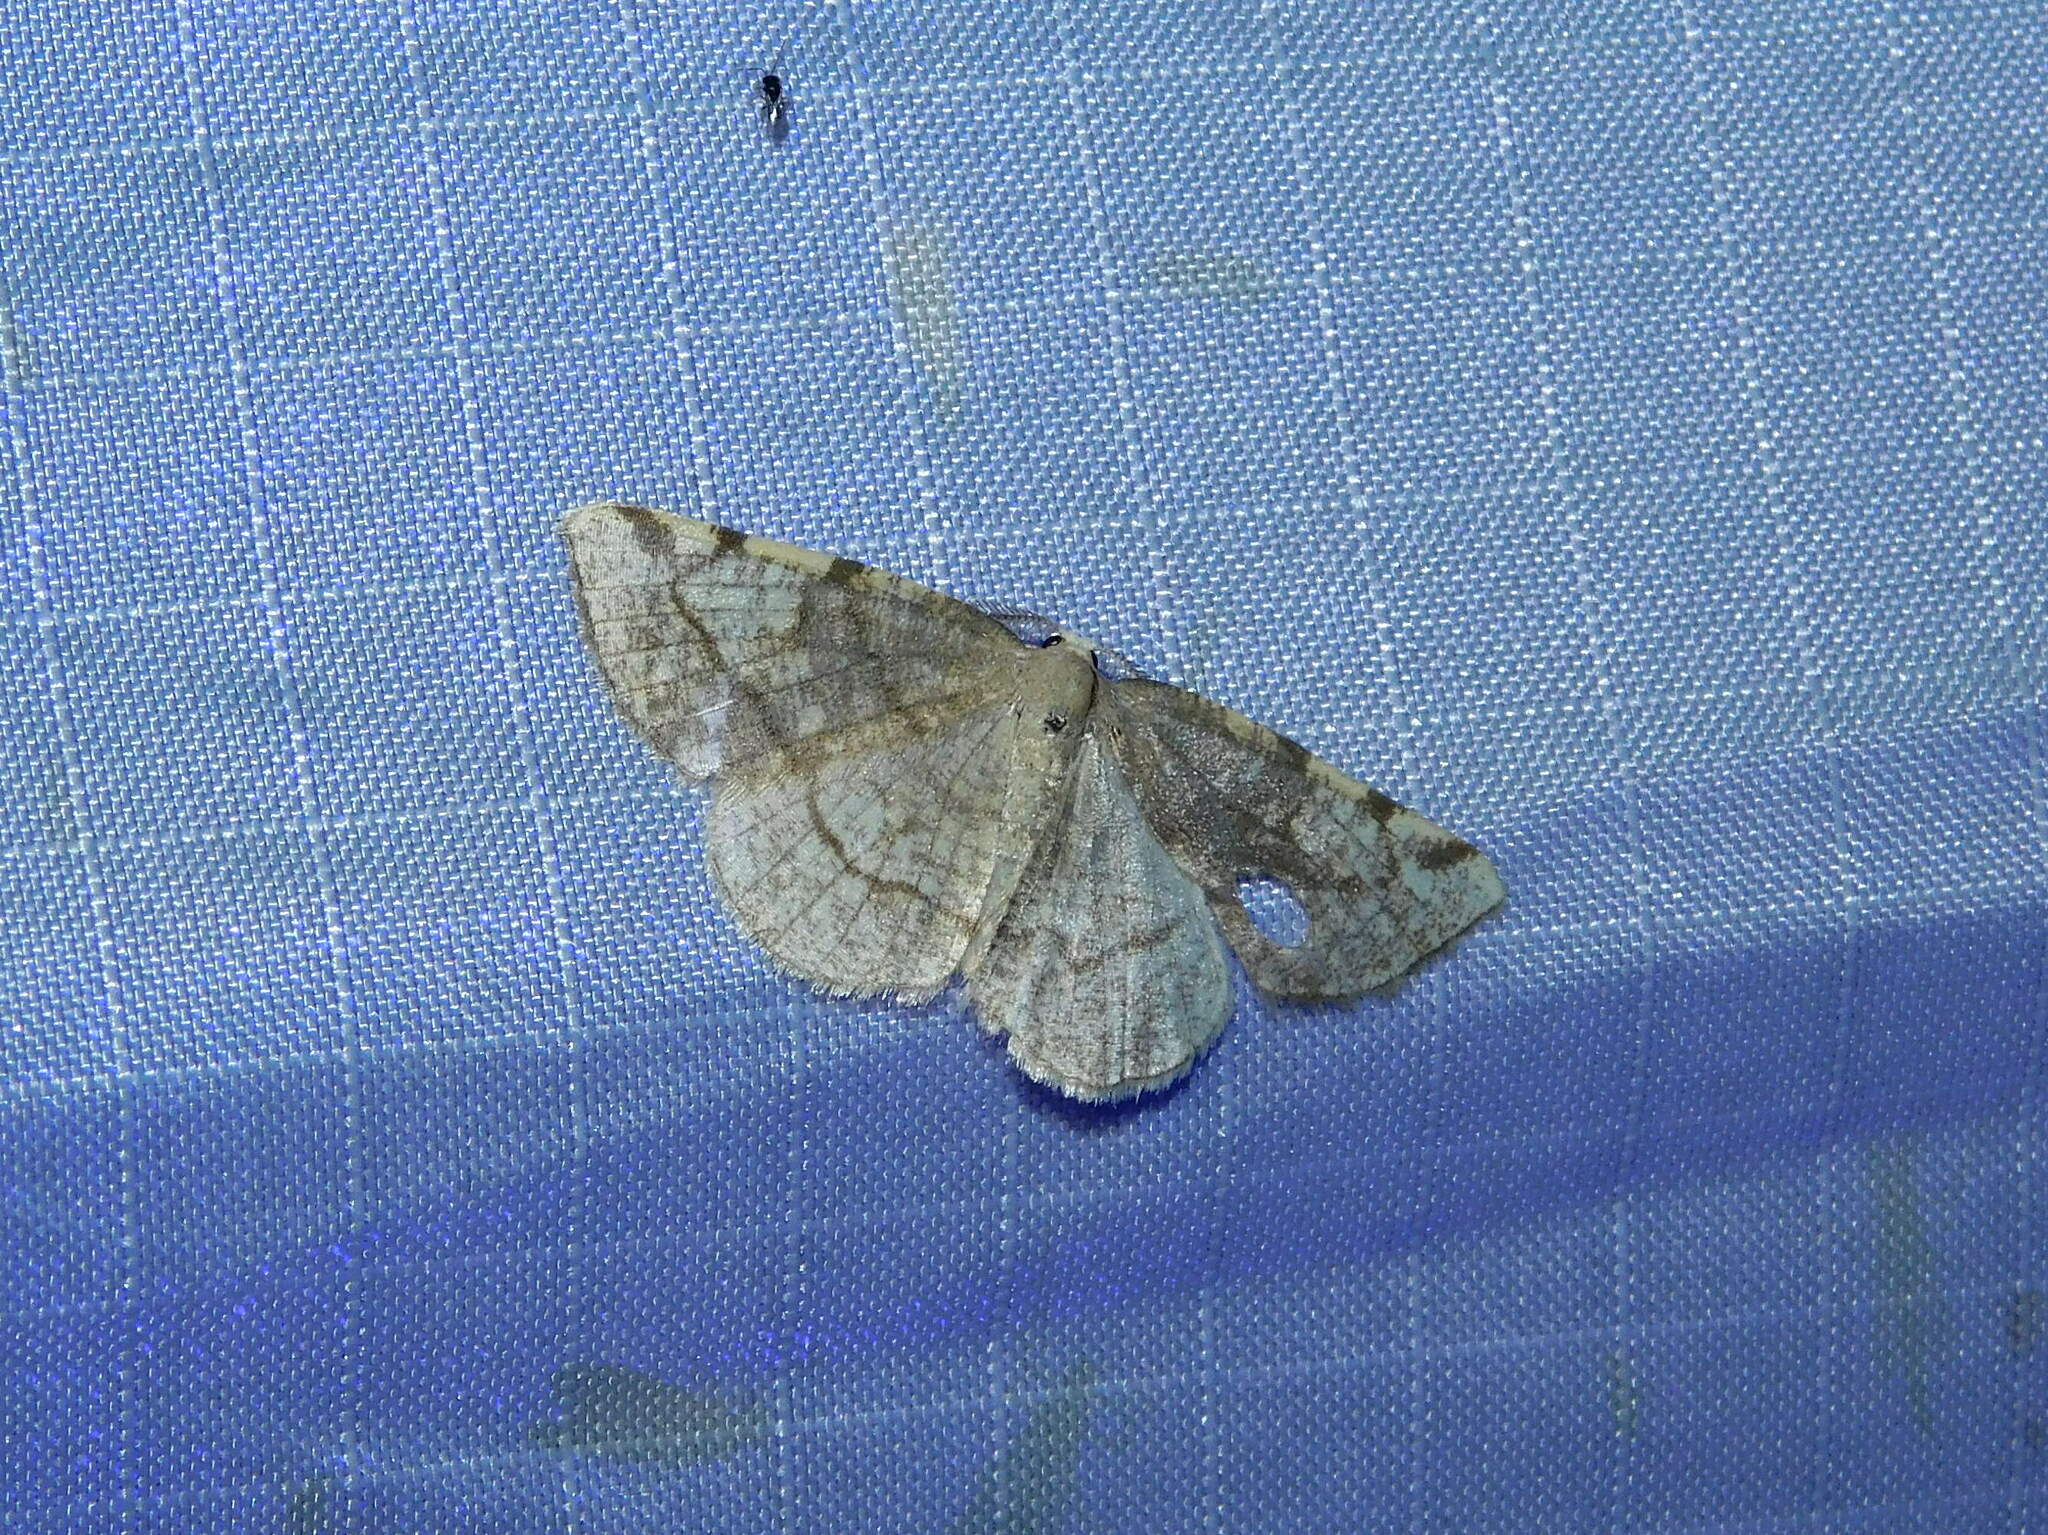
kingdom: Animalia
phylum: Arthropoda
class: Insecta
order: Lepidoptera
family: Geometridae
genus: Stegania
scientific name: Stegania trimaculata
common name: Dorset cream wave
